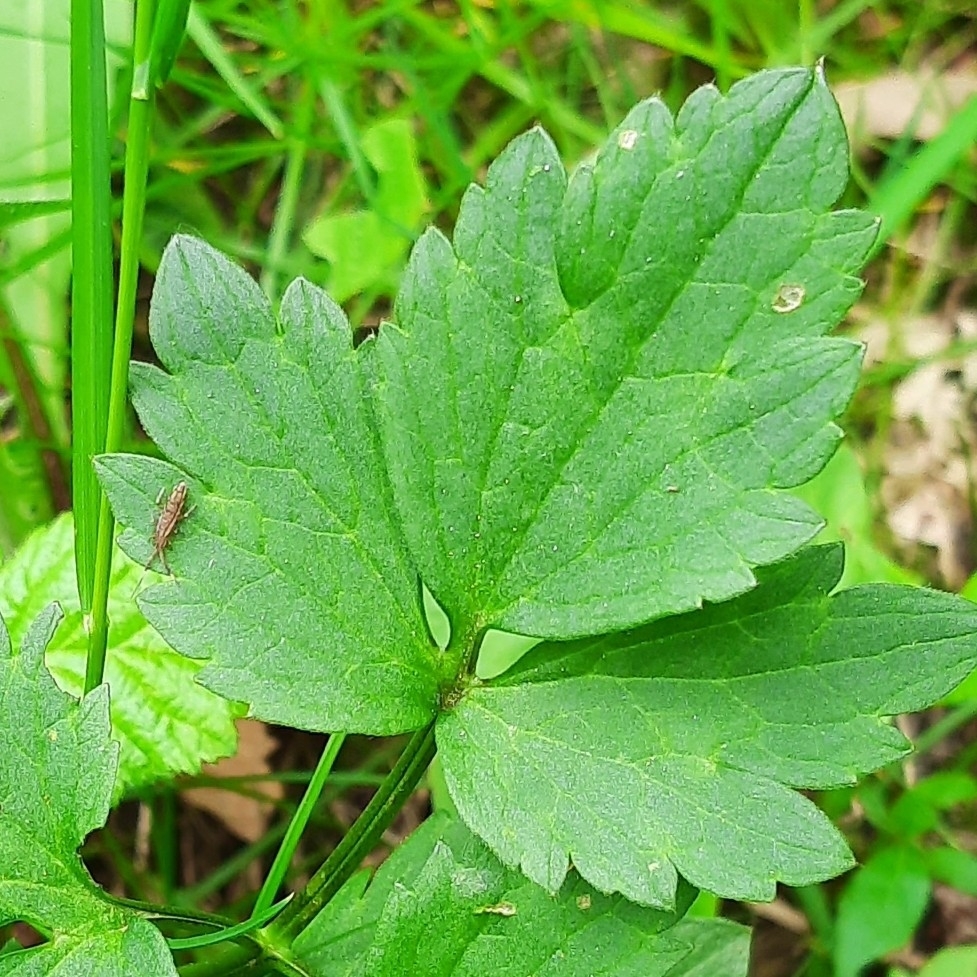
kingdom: Animalia
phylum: Arthropoda
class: Collembola
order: Entomobryomorpha
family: Entomobryidae
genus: Entomobrya
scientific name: Entomobrya nivalis
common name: Cosmopolitan springtail
